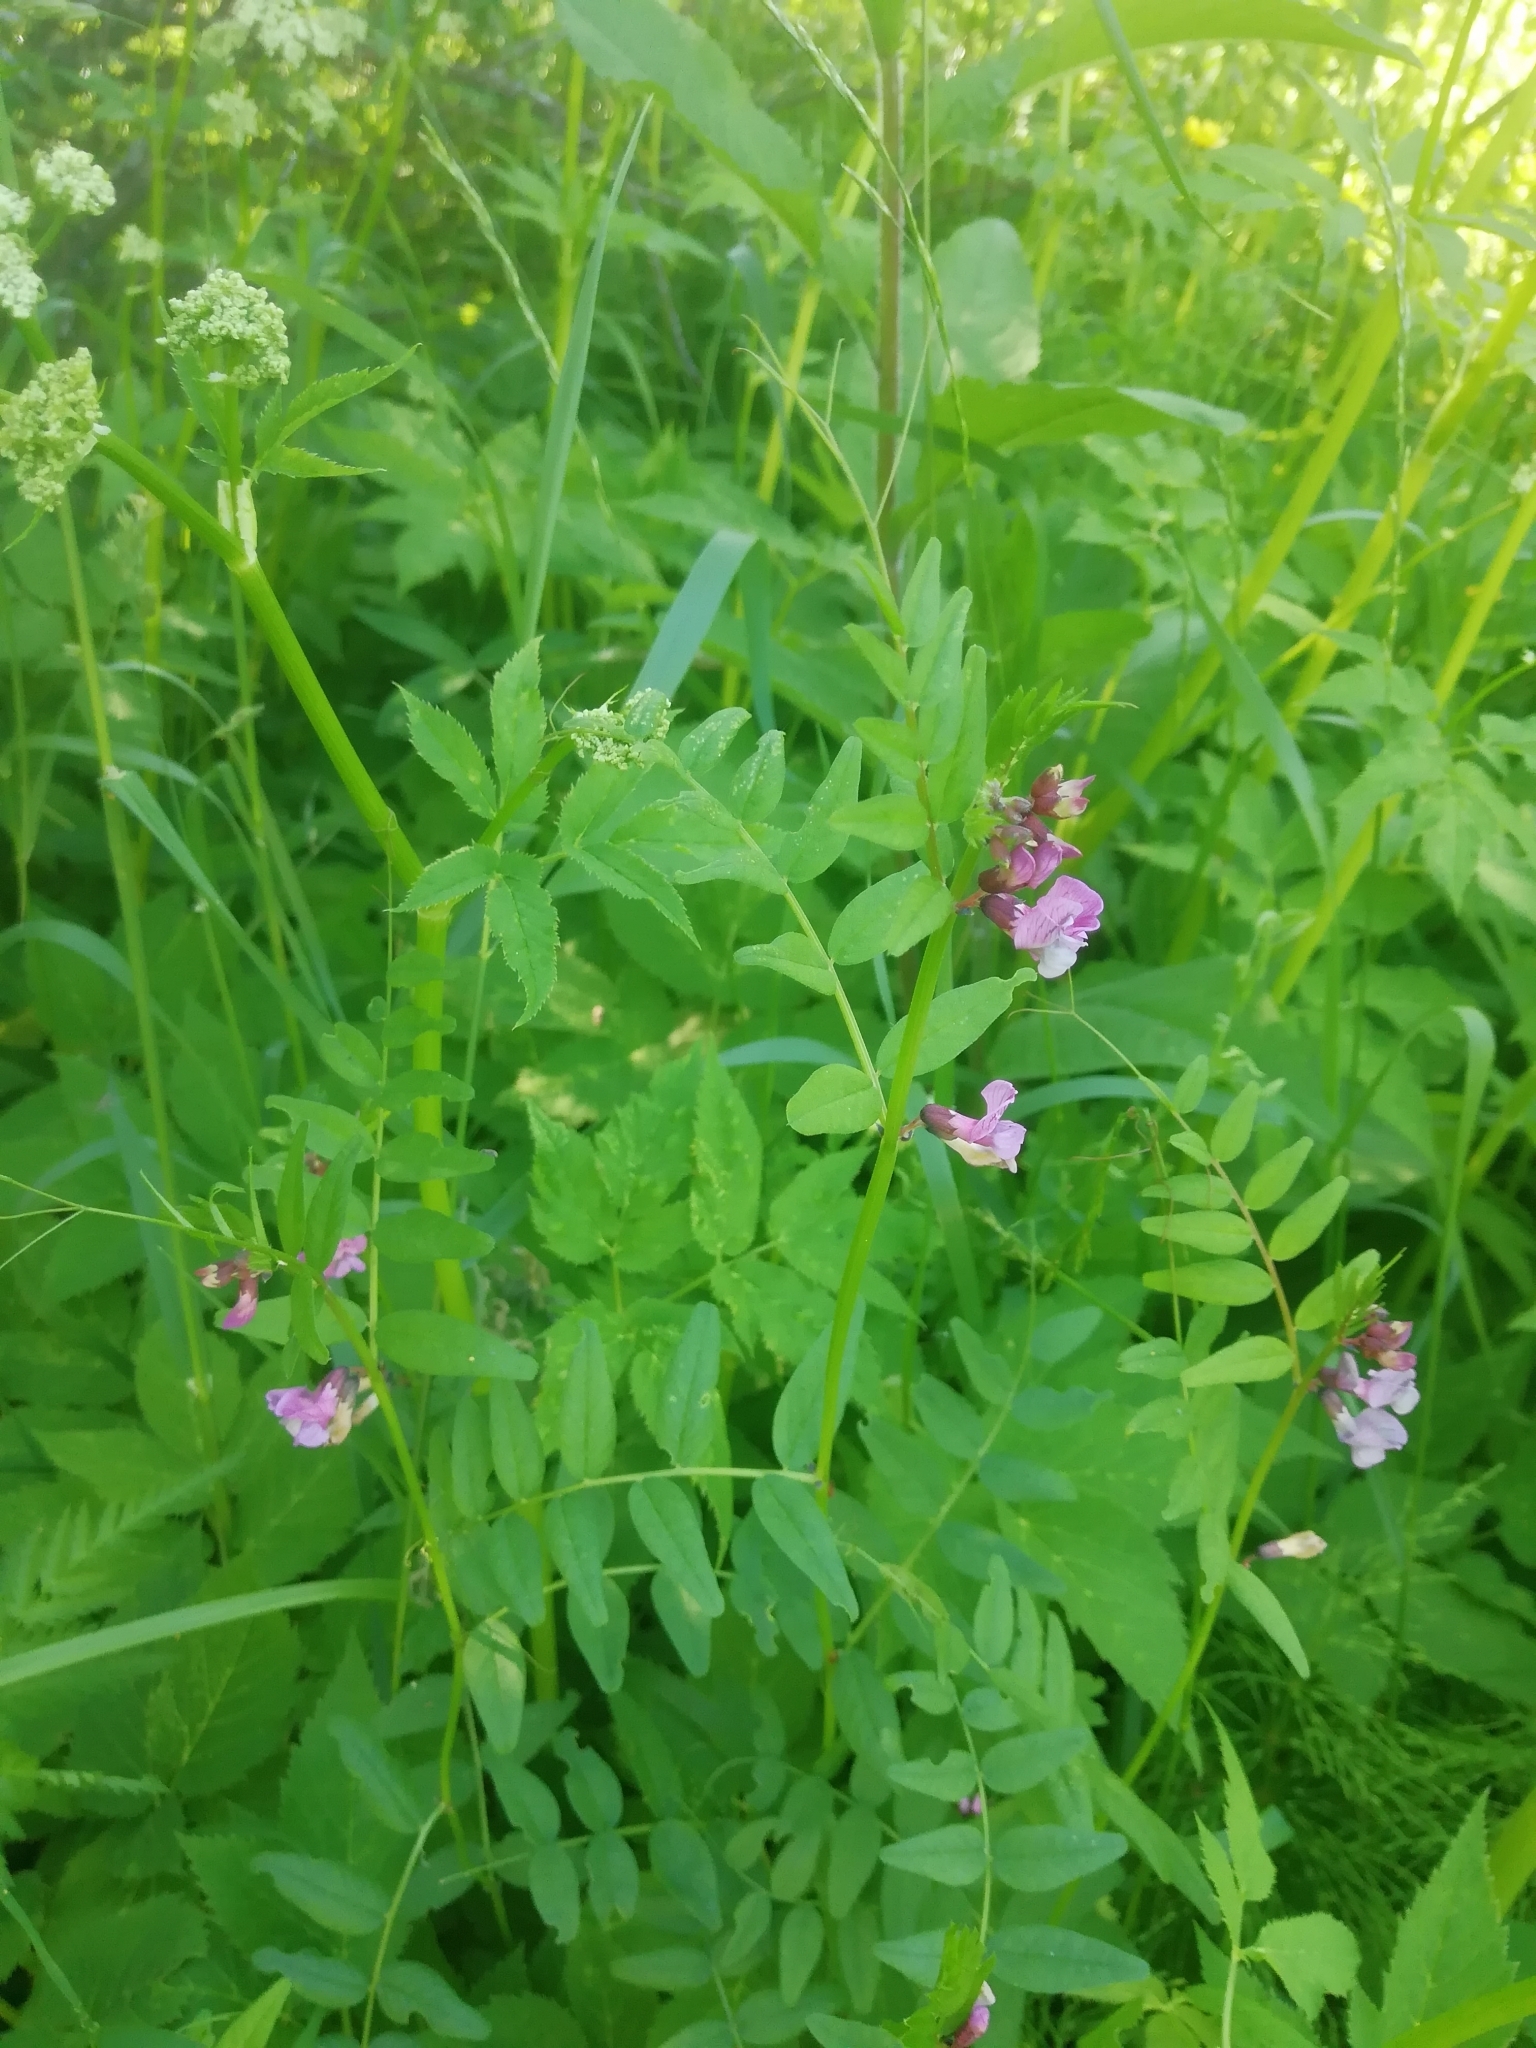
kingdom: Plantae
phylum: Tracheophyta
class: Magnoliopsida
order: Fabales
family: Fabaceae
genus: Vicia
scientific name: Vicia sepium
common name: Bush vetch
